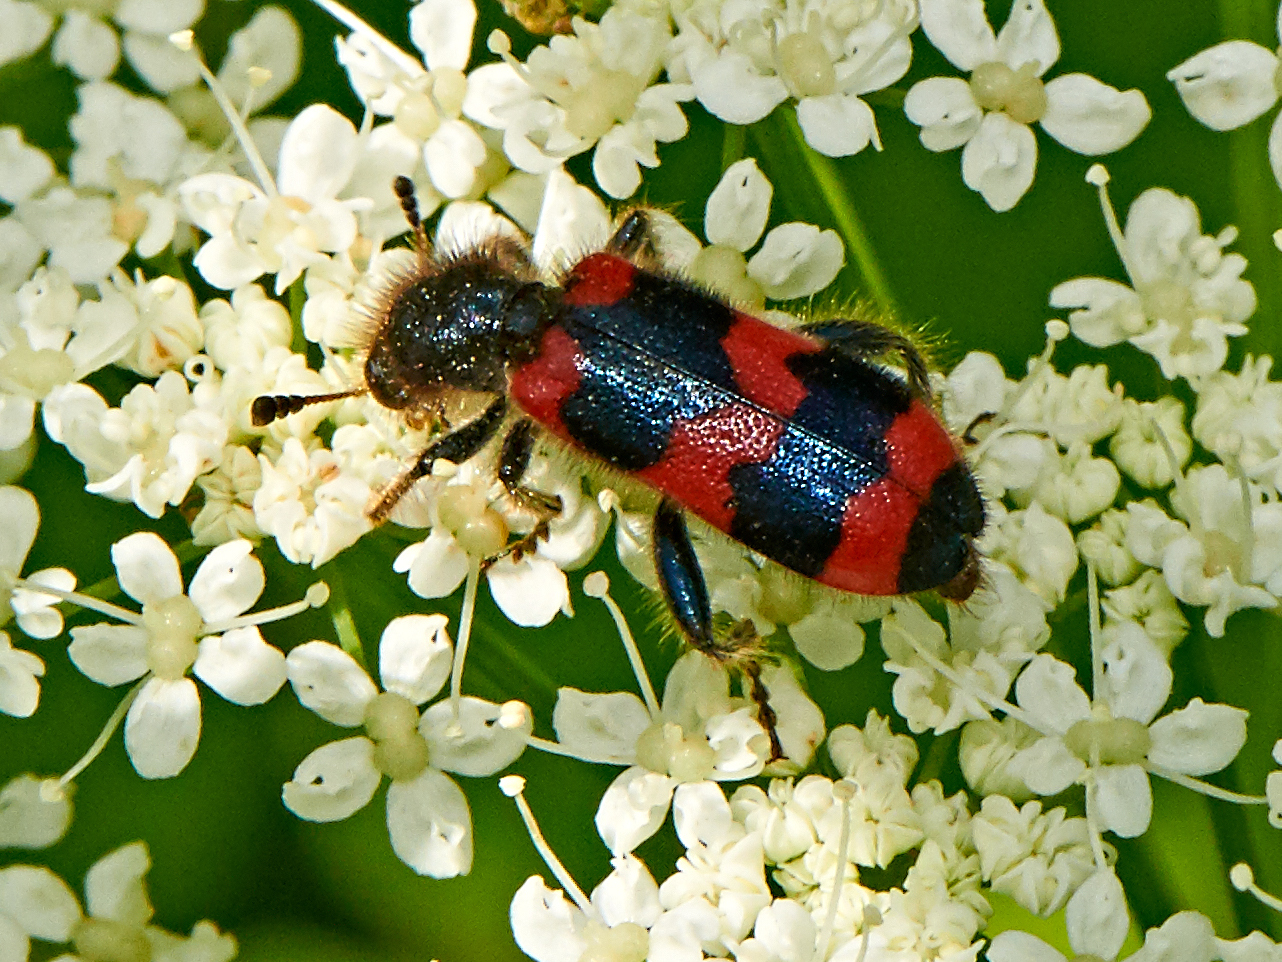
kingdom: Animalia
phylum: Arthropoda
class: Insecta
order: Coleoptera
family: Cleridae
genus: Trichodes
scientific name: Trichodes apiarius
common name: Bee-eating beetle
